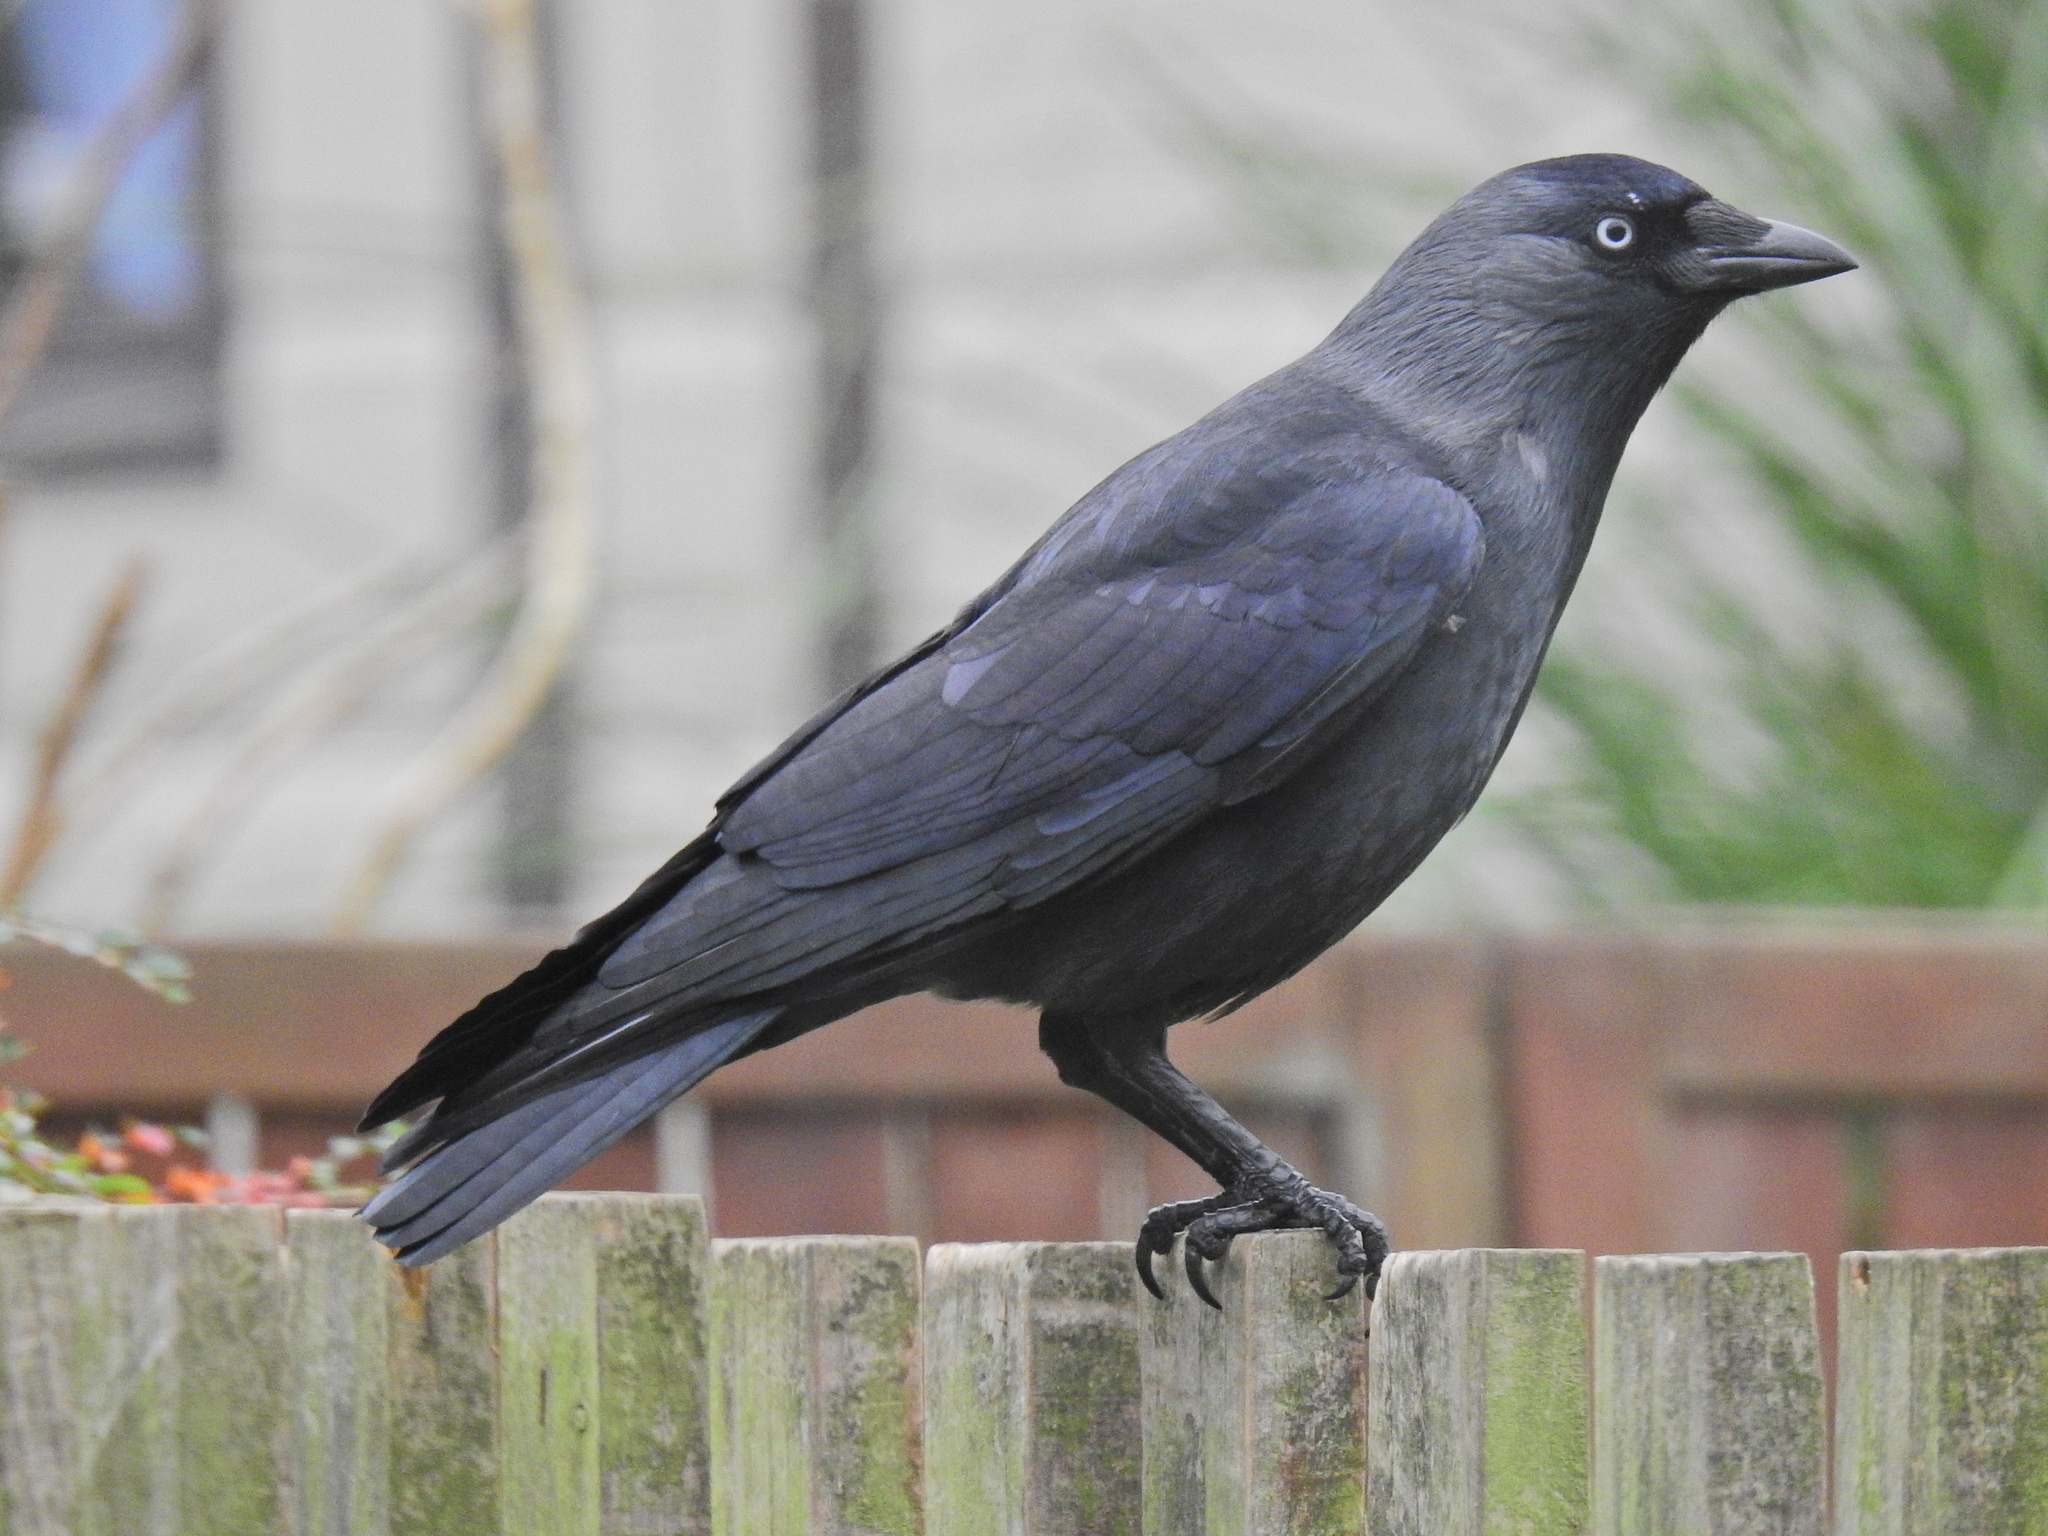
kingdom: Animalia
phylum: Chordata
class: Aves
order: Passeriformes
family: Corvidae
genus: Coloeus
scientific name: Coloeus monedula
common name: Western jackdaw
